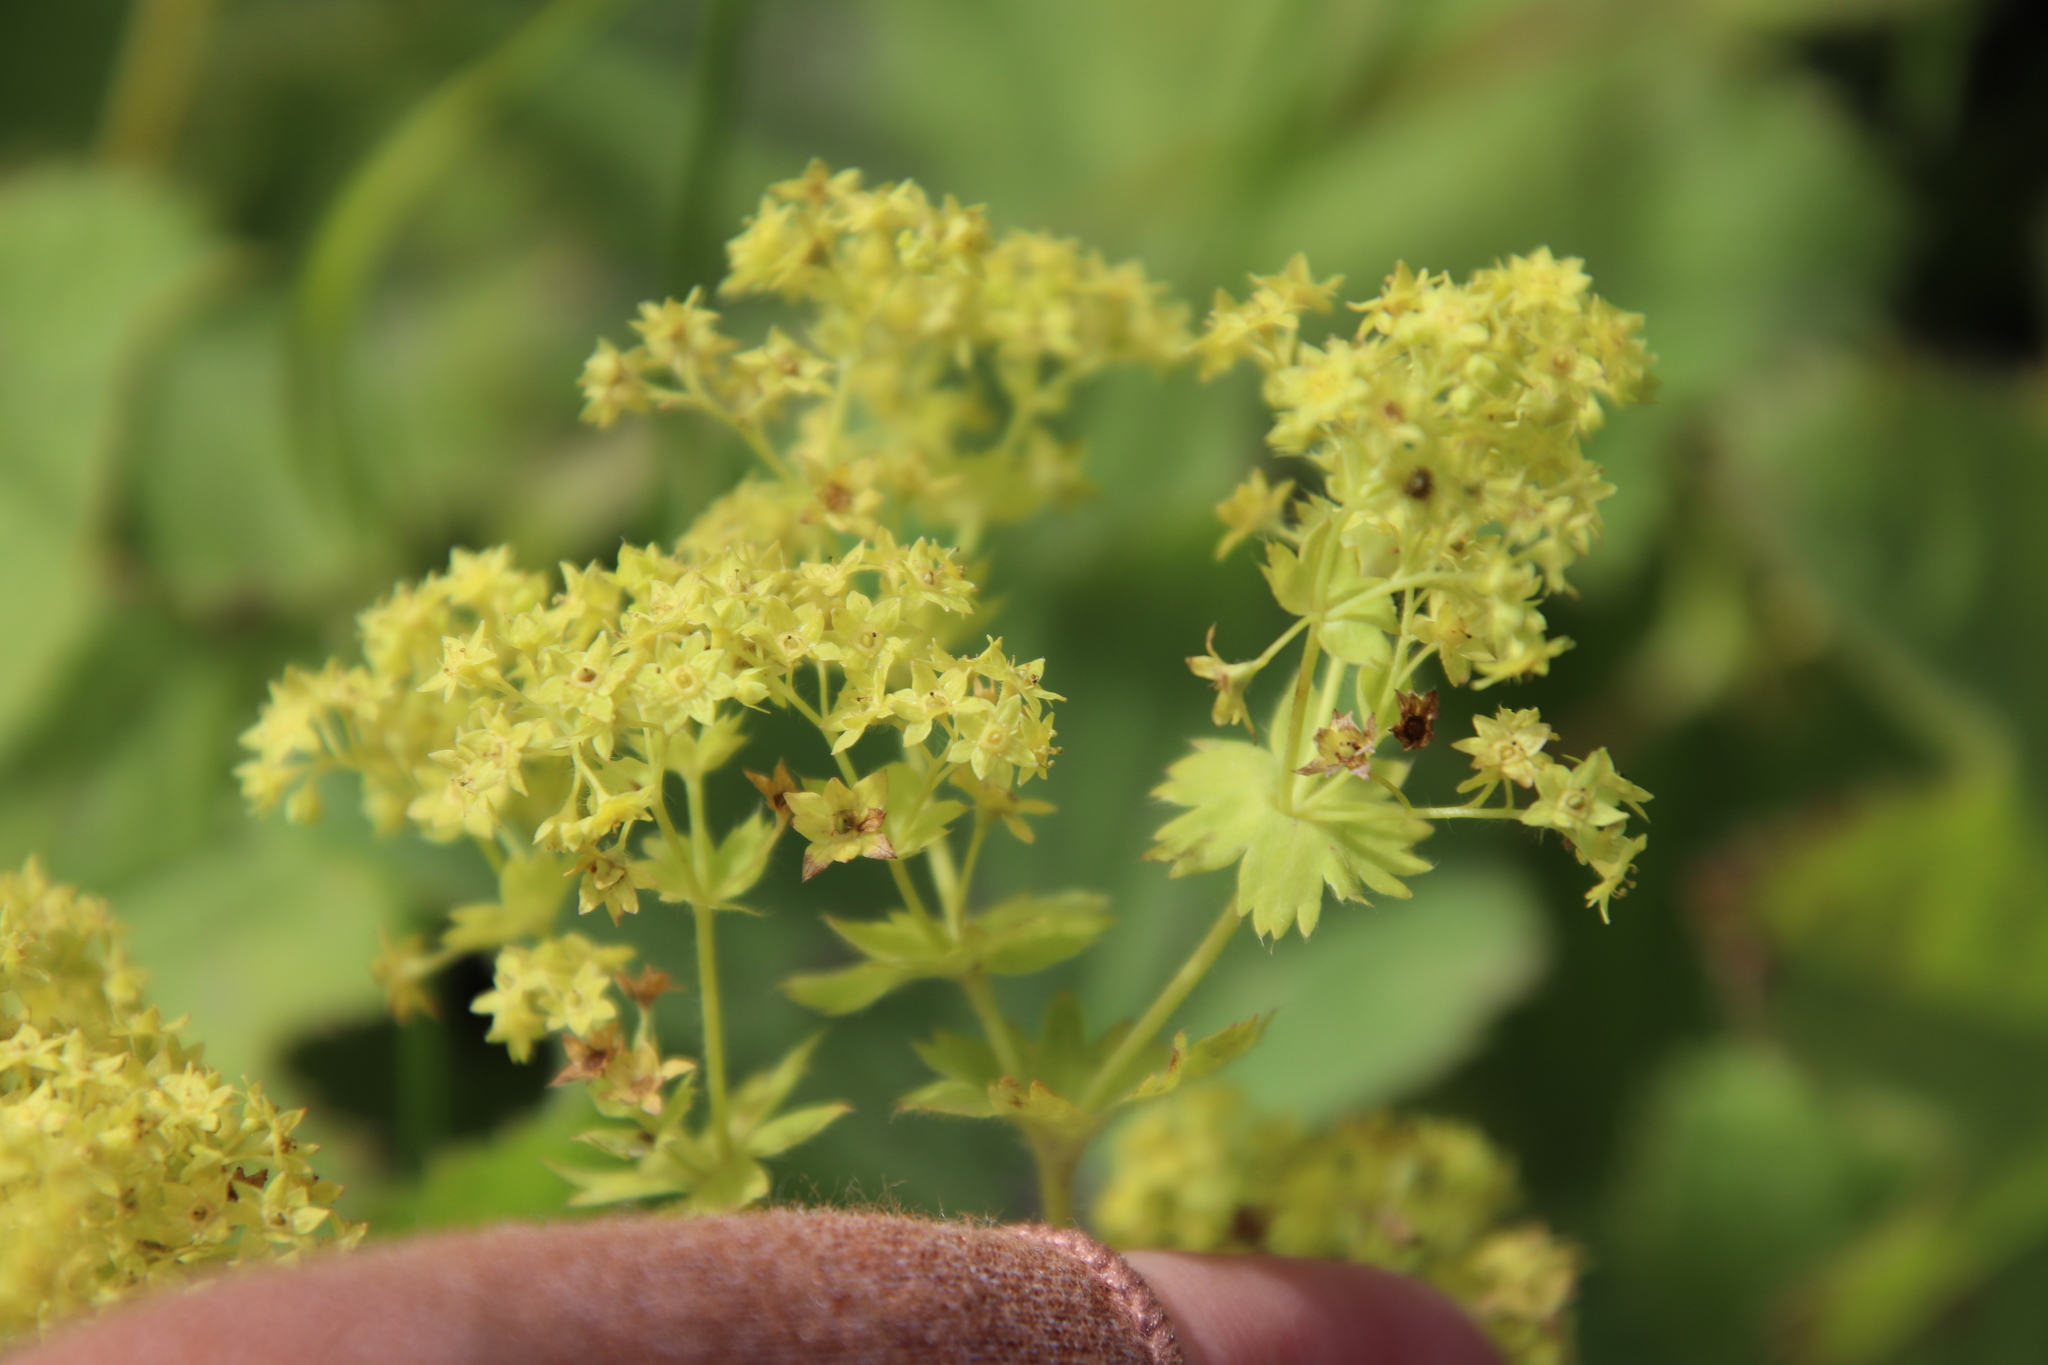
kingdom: Plantae
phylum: Tracheophyta
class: Magnoliopsida
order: Rosales
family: Rosaceae
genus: Alchemilla
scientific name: Alchemilla mollis
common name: Lady's-mantle
